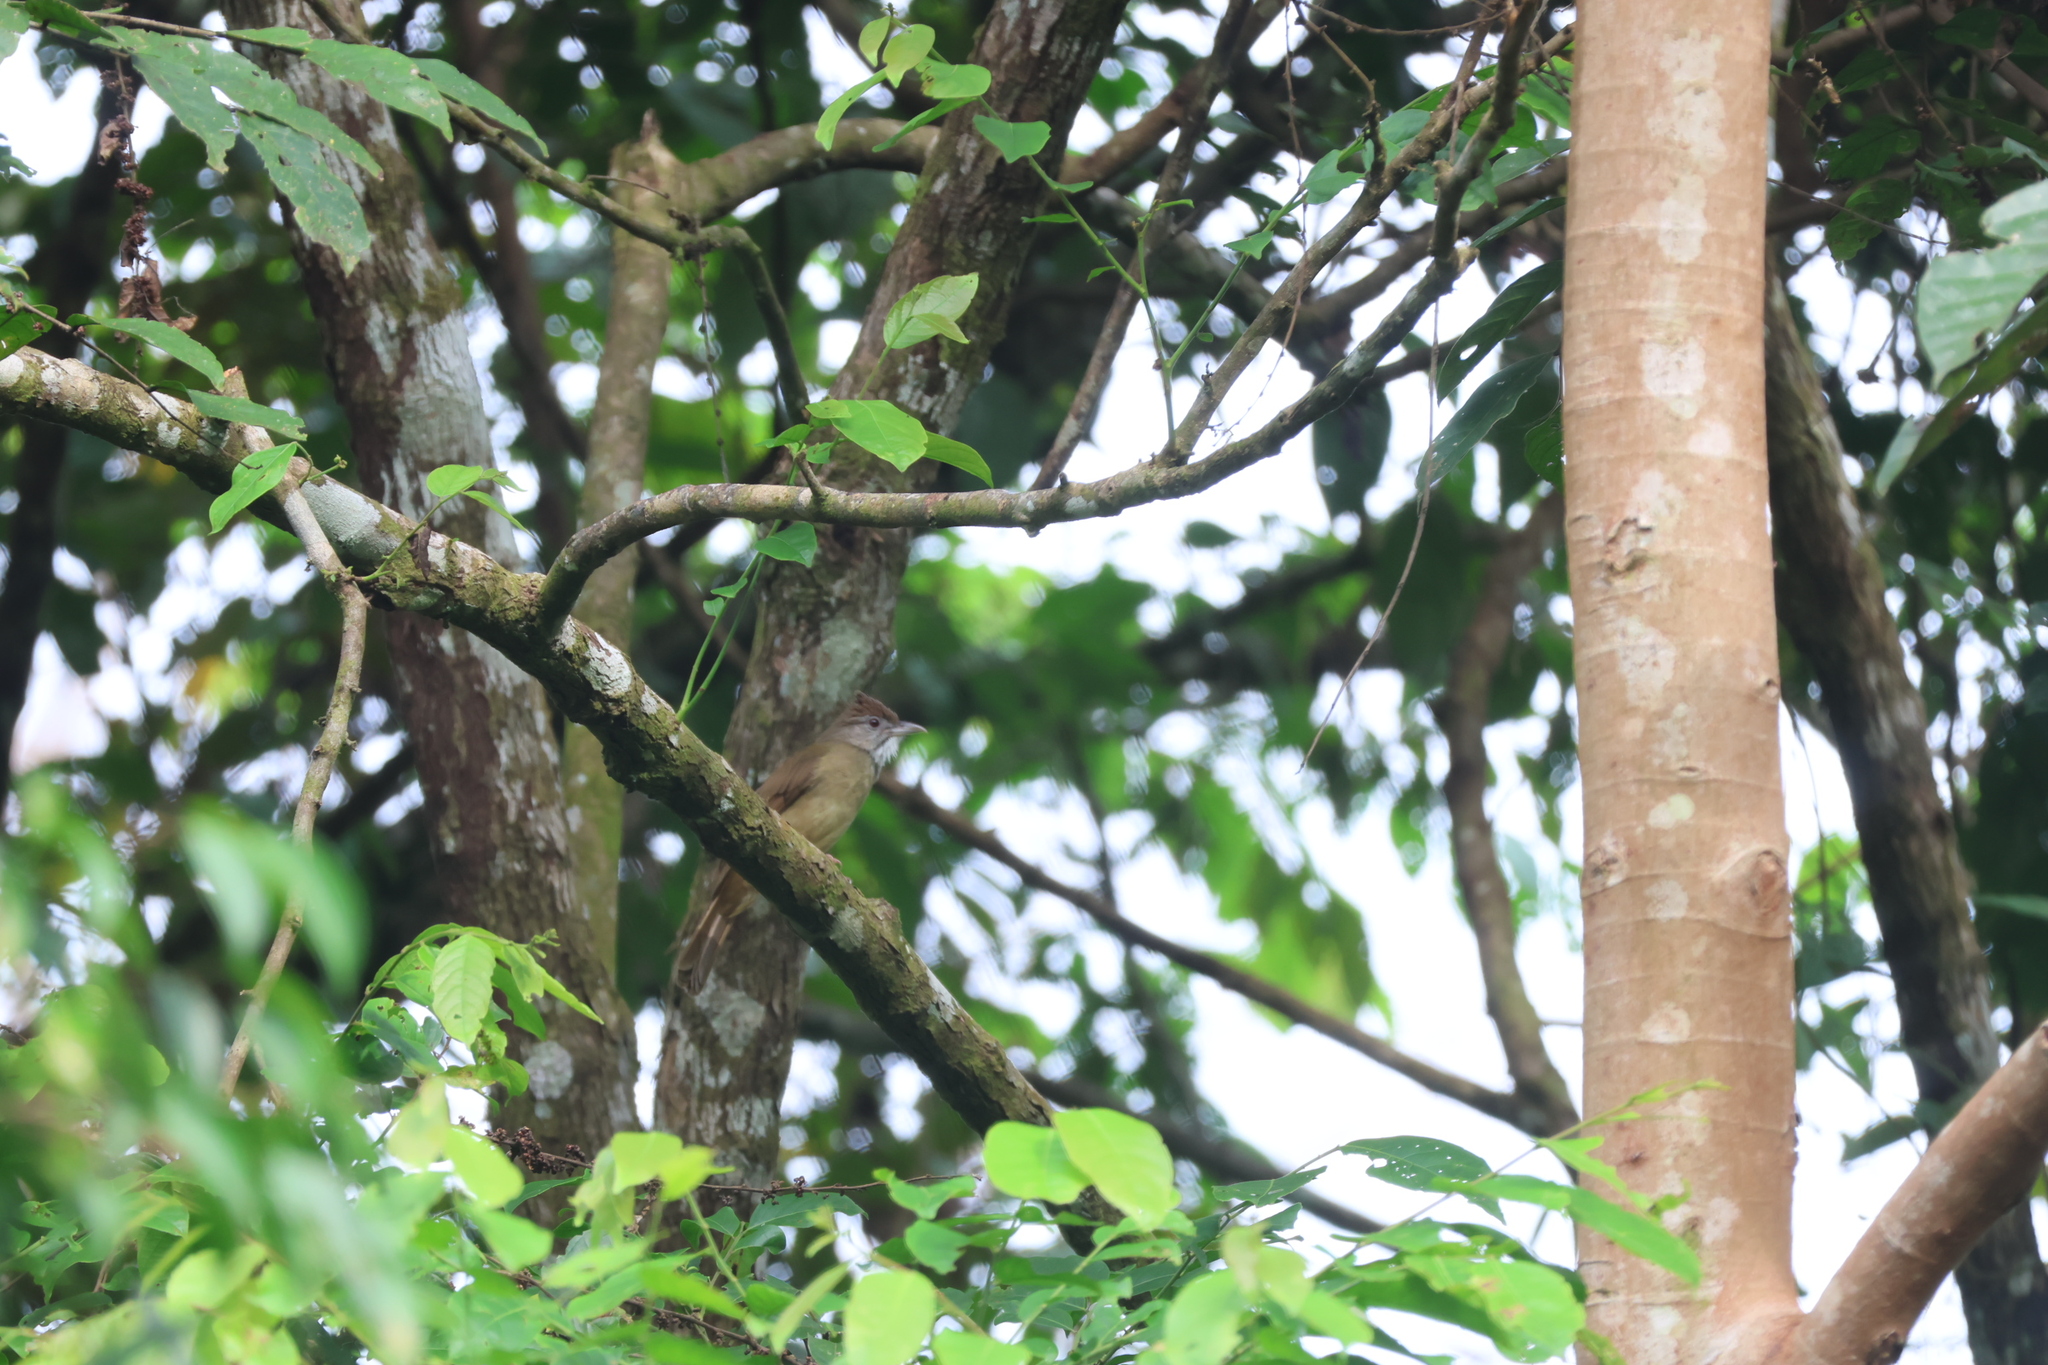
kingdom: Animalia
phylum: Chordata
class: Aves
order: Passeriformes
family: Pycnonotidae
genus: Alophoixus
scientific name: Alophoixus bres
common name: Gray-cheeked bulbul
